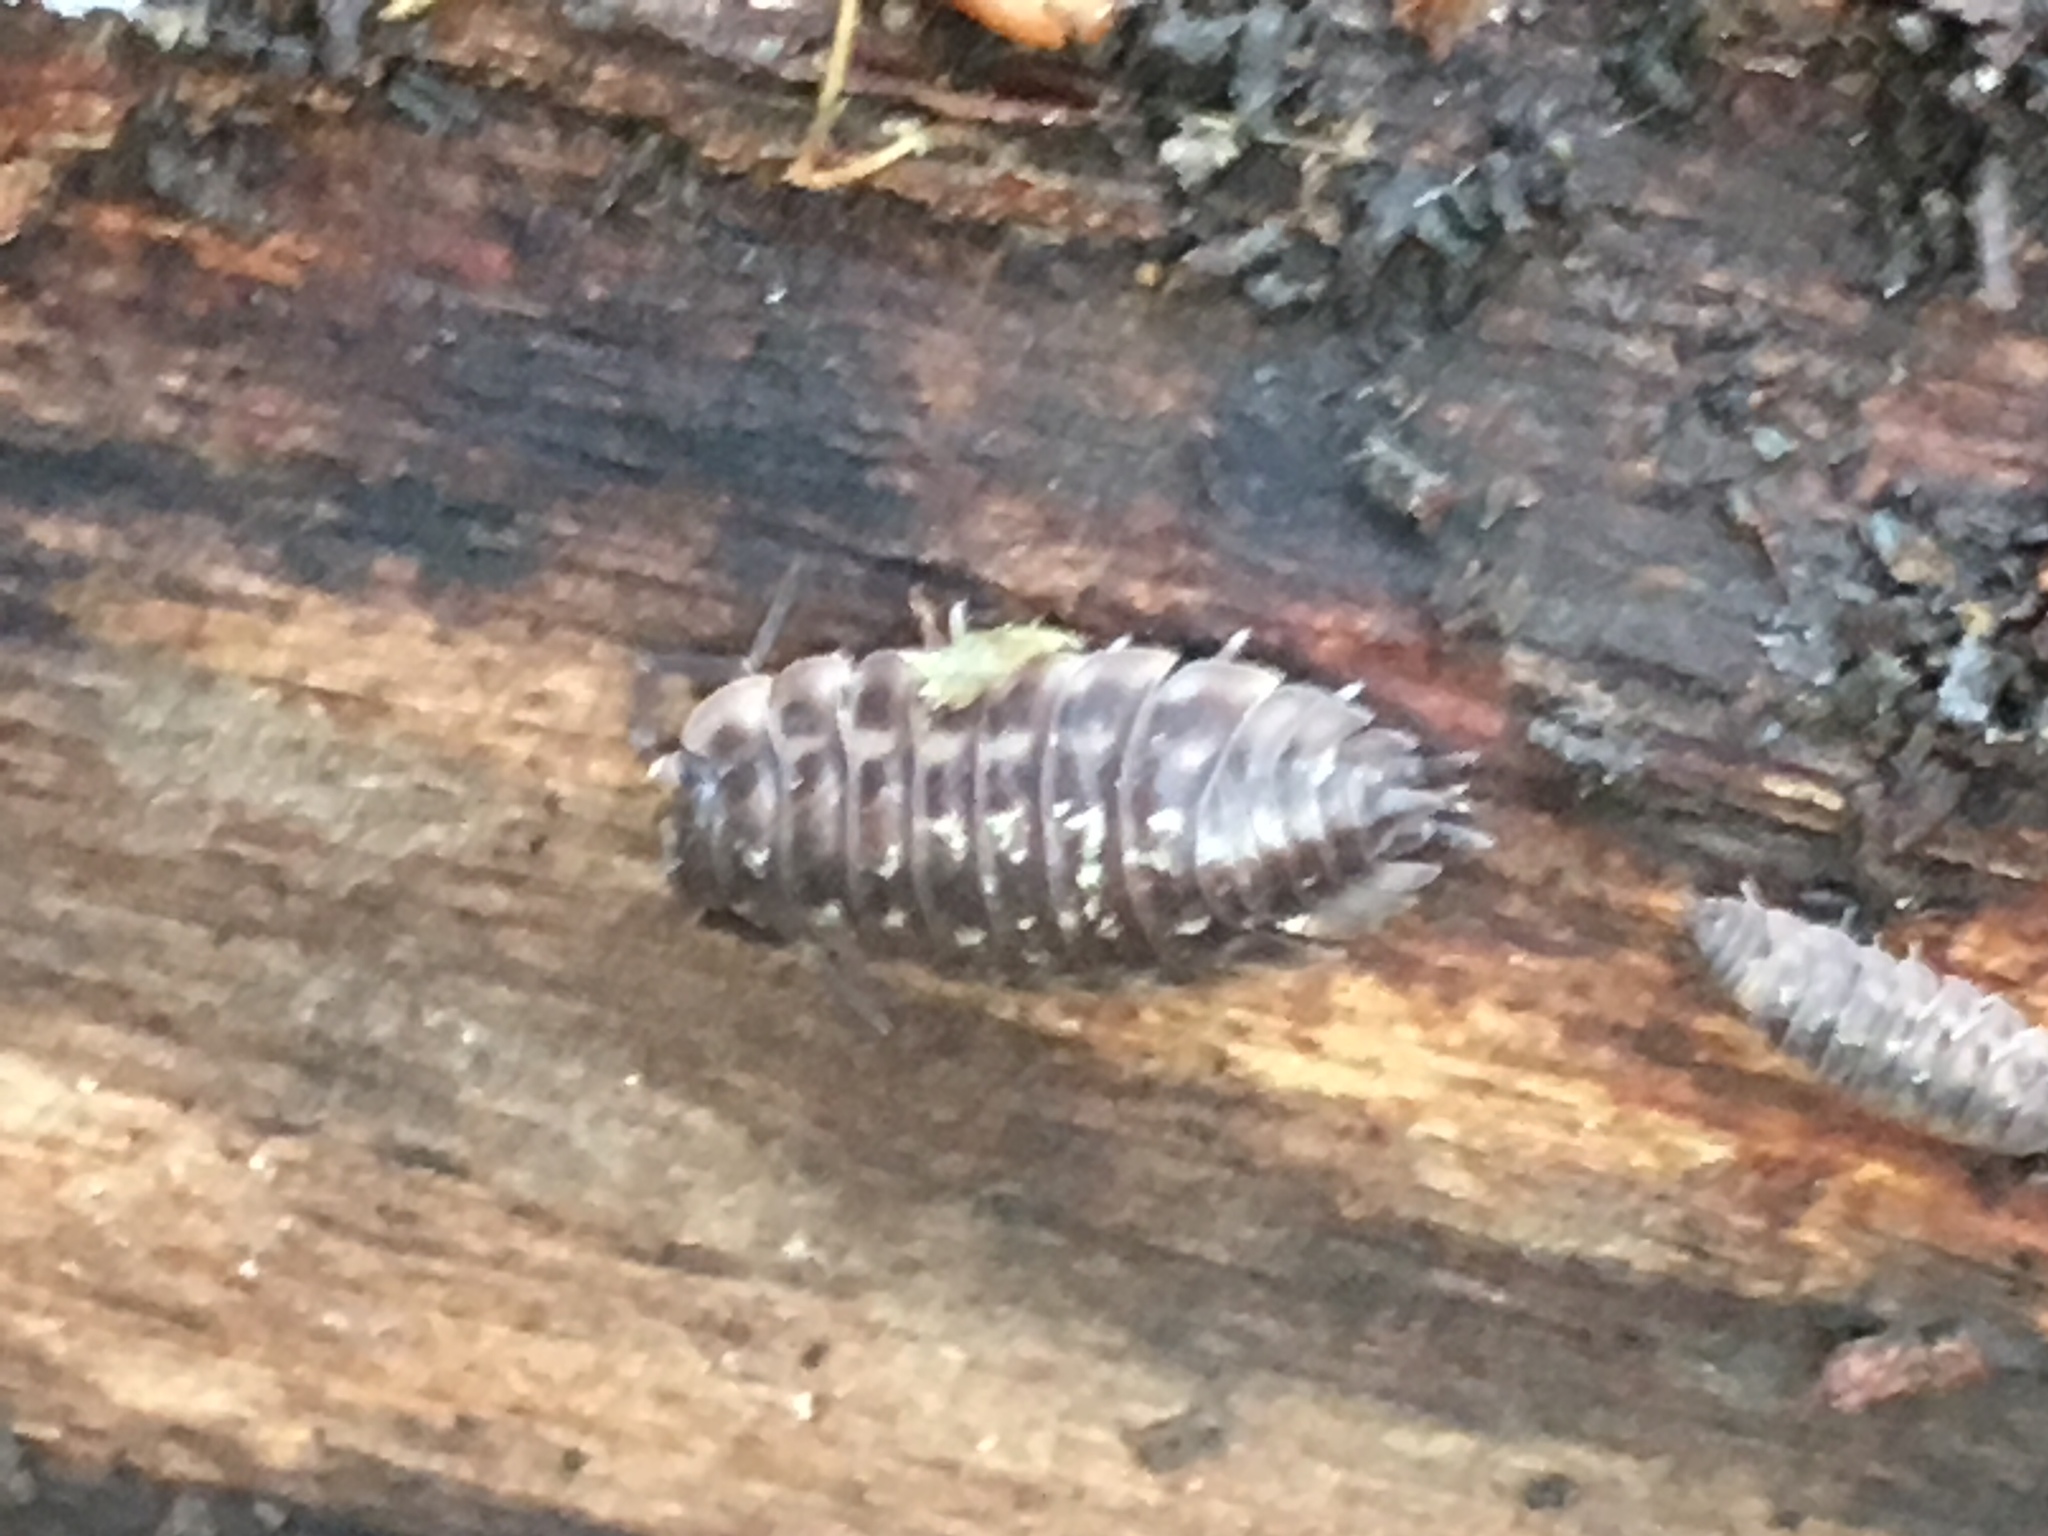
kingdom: Animalia
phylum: Arthropoda
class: Malacostraca
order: Isopoda
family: Oniscidae
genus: Oniscus
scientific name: Oniscus asellus
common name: Common shiny woodlouse
